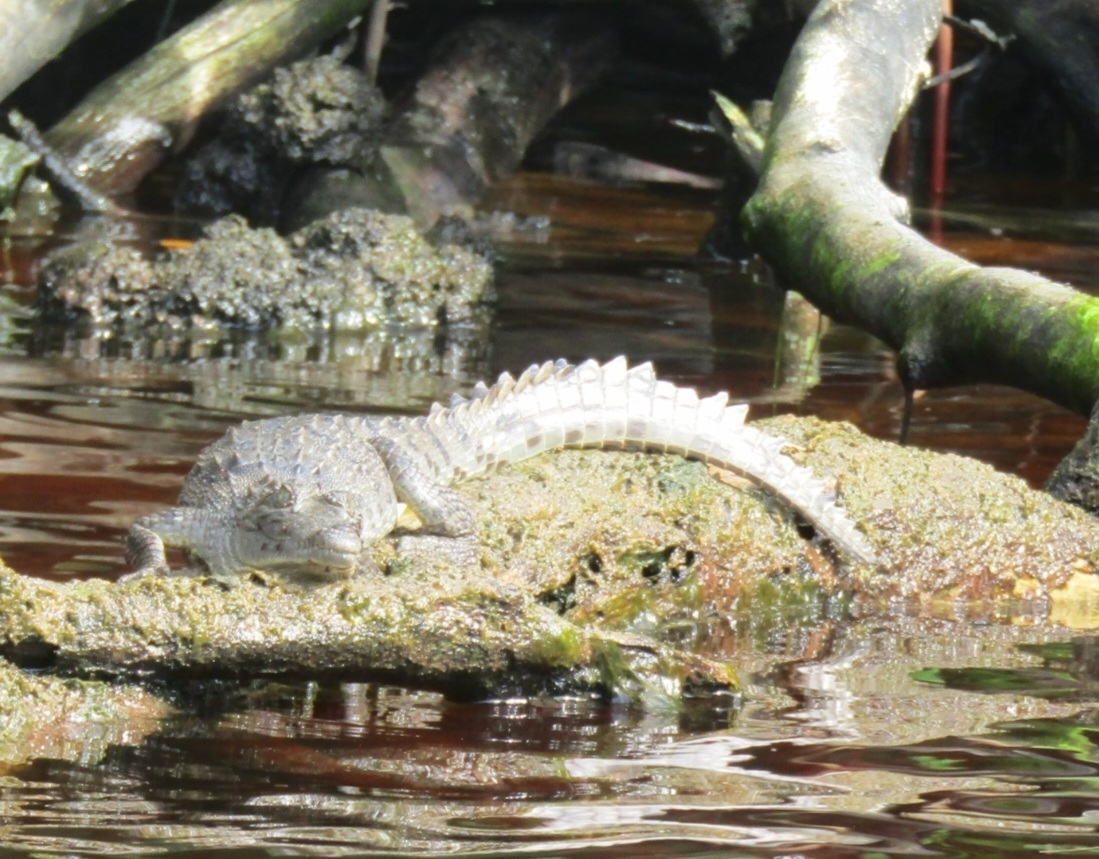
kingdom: Animalia
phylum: Chordata
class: Crocodylia
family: Crocodylidae
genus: Crocodylus
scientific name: Crocodylus acutus
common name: American crocodile
